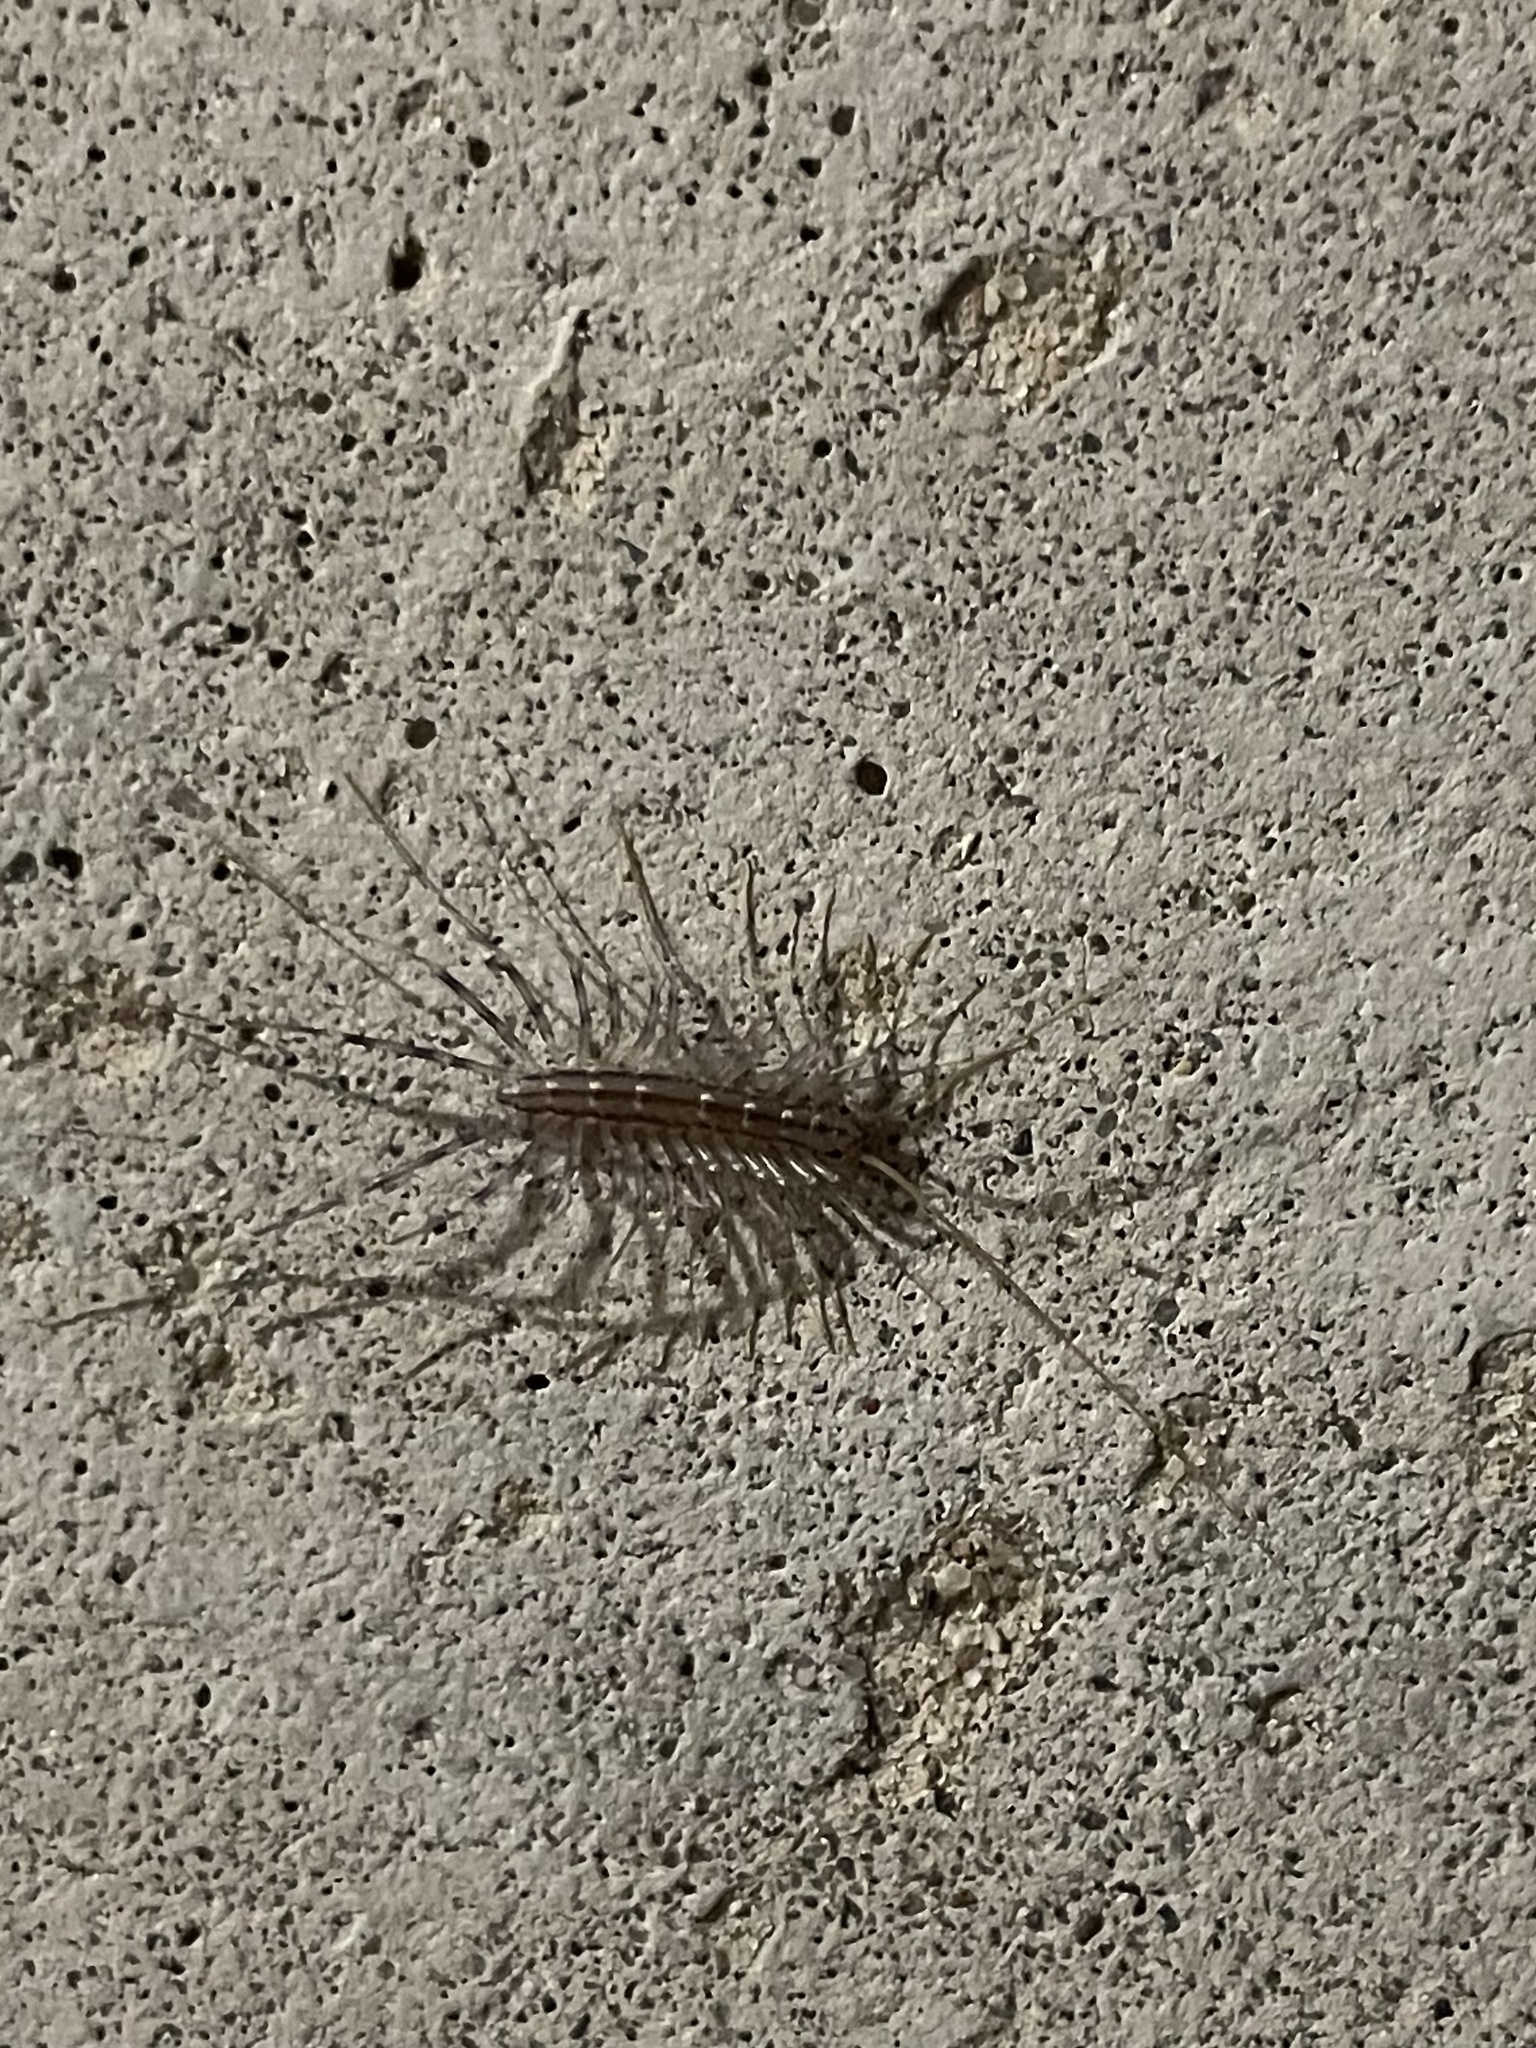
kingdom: Animalia
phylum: Arthropoda
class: Chilopoda
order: Scutigeromorpha
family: Scutigeridae
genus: Scutigera
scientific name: Scutigera coleoptrata
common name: House centipede
